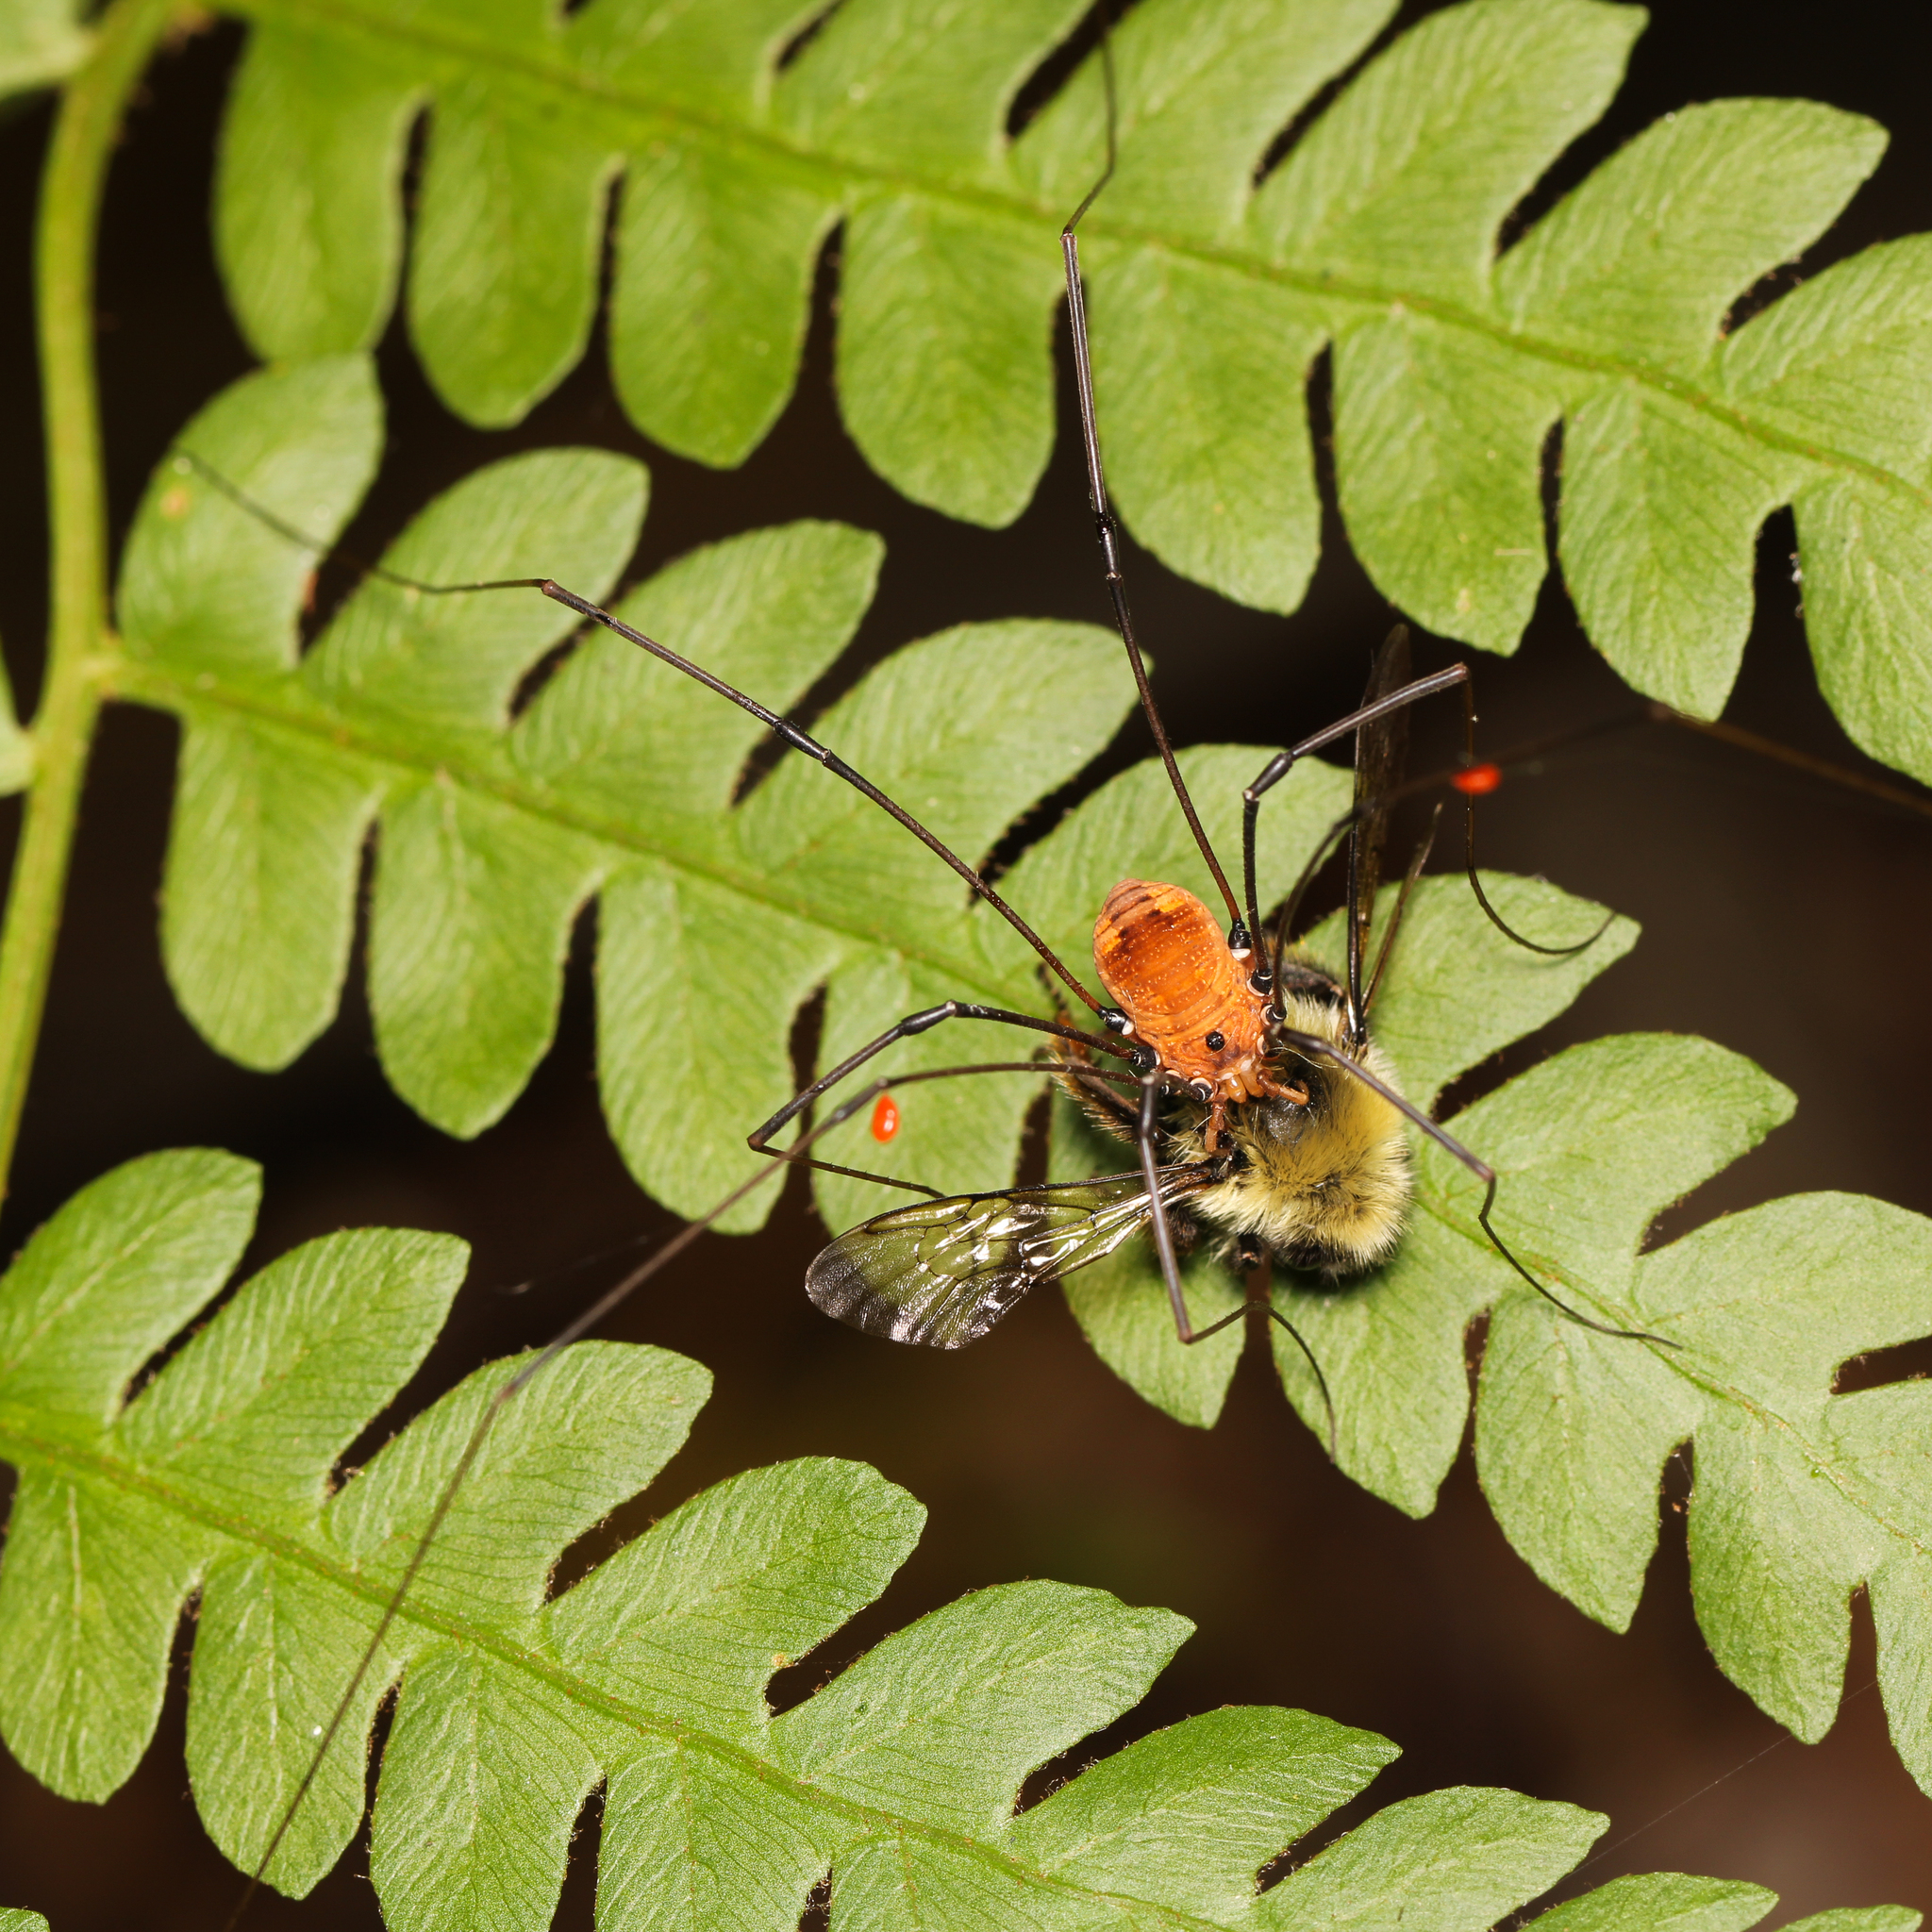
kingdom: Animalia
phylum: Arthropoda
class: Insecta
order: Hymenoptera
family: Apidae
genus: Pyrobombus
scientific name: Pyrobombus
